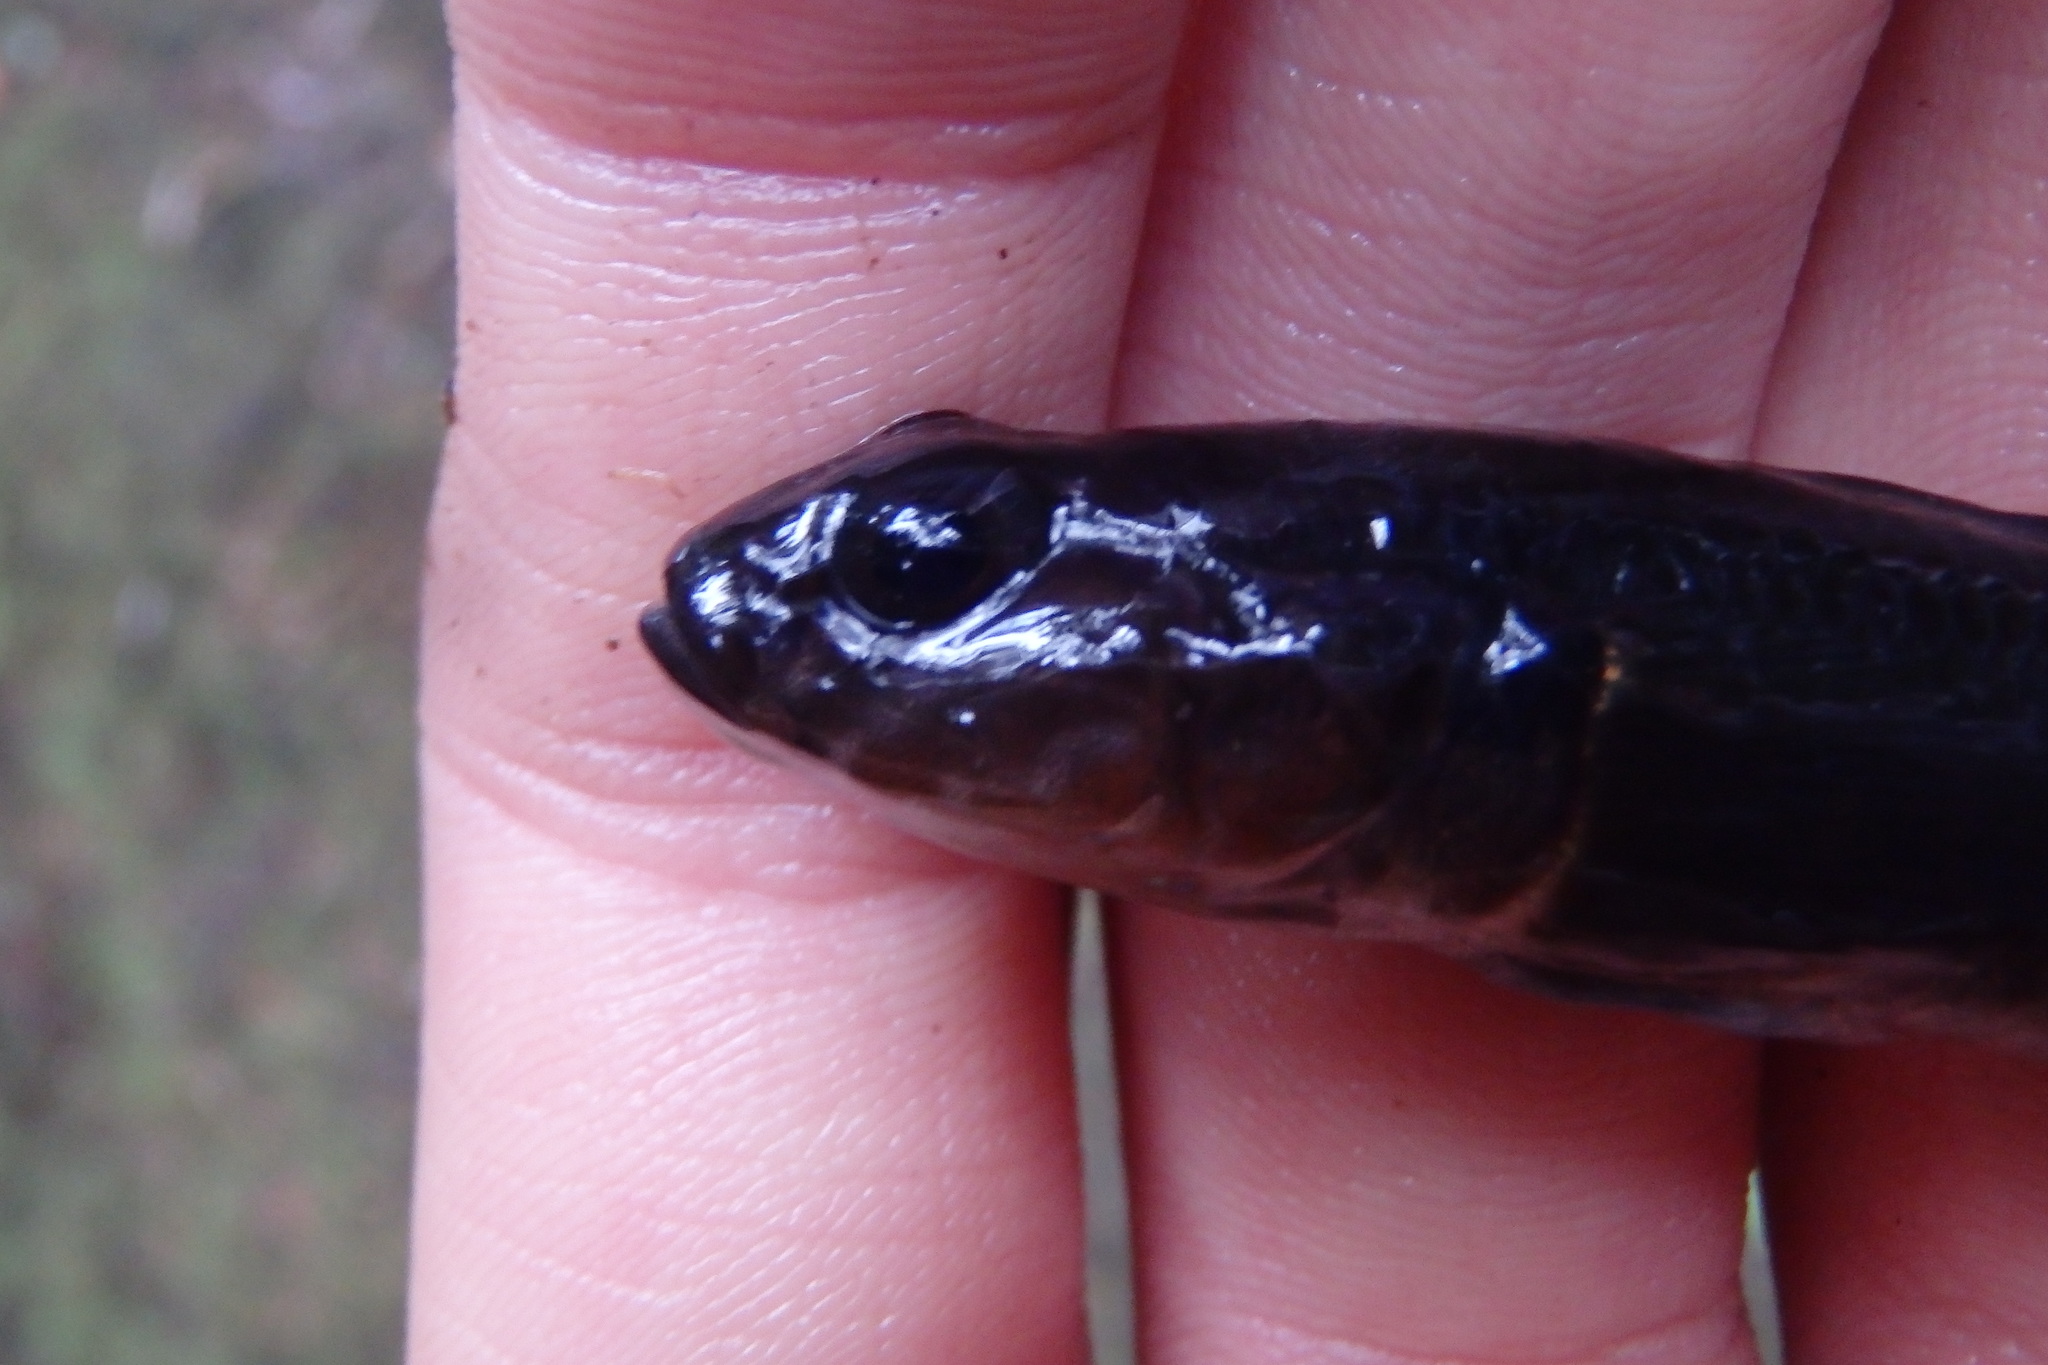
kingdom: Animalia
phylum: Chordata
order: Perciformes
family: Eleotridae
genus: Gobiomorphus
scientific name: Gobiomorphus huttoni
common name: Redfin bully
